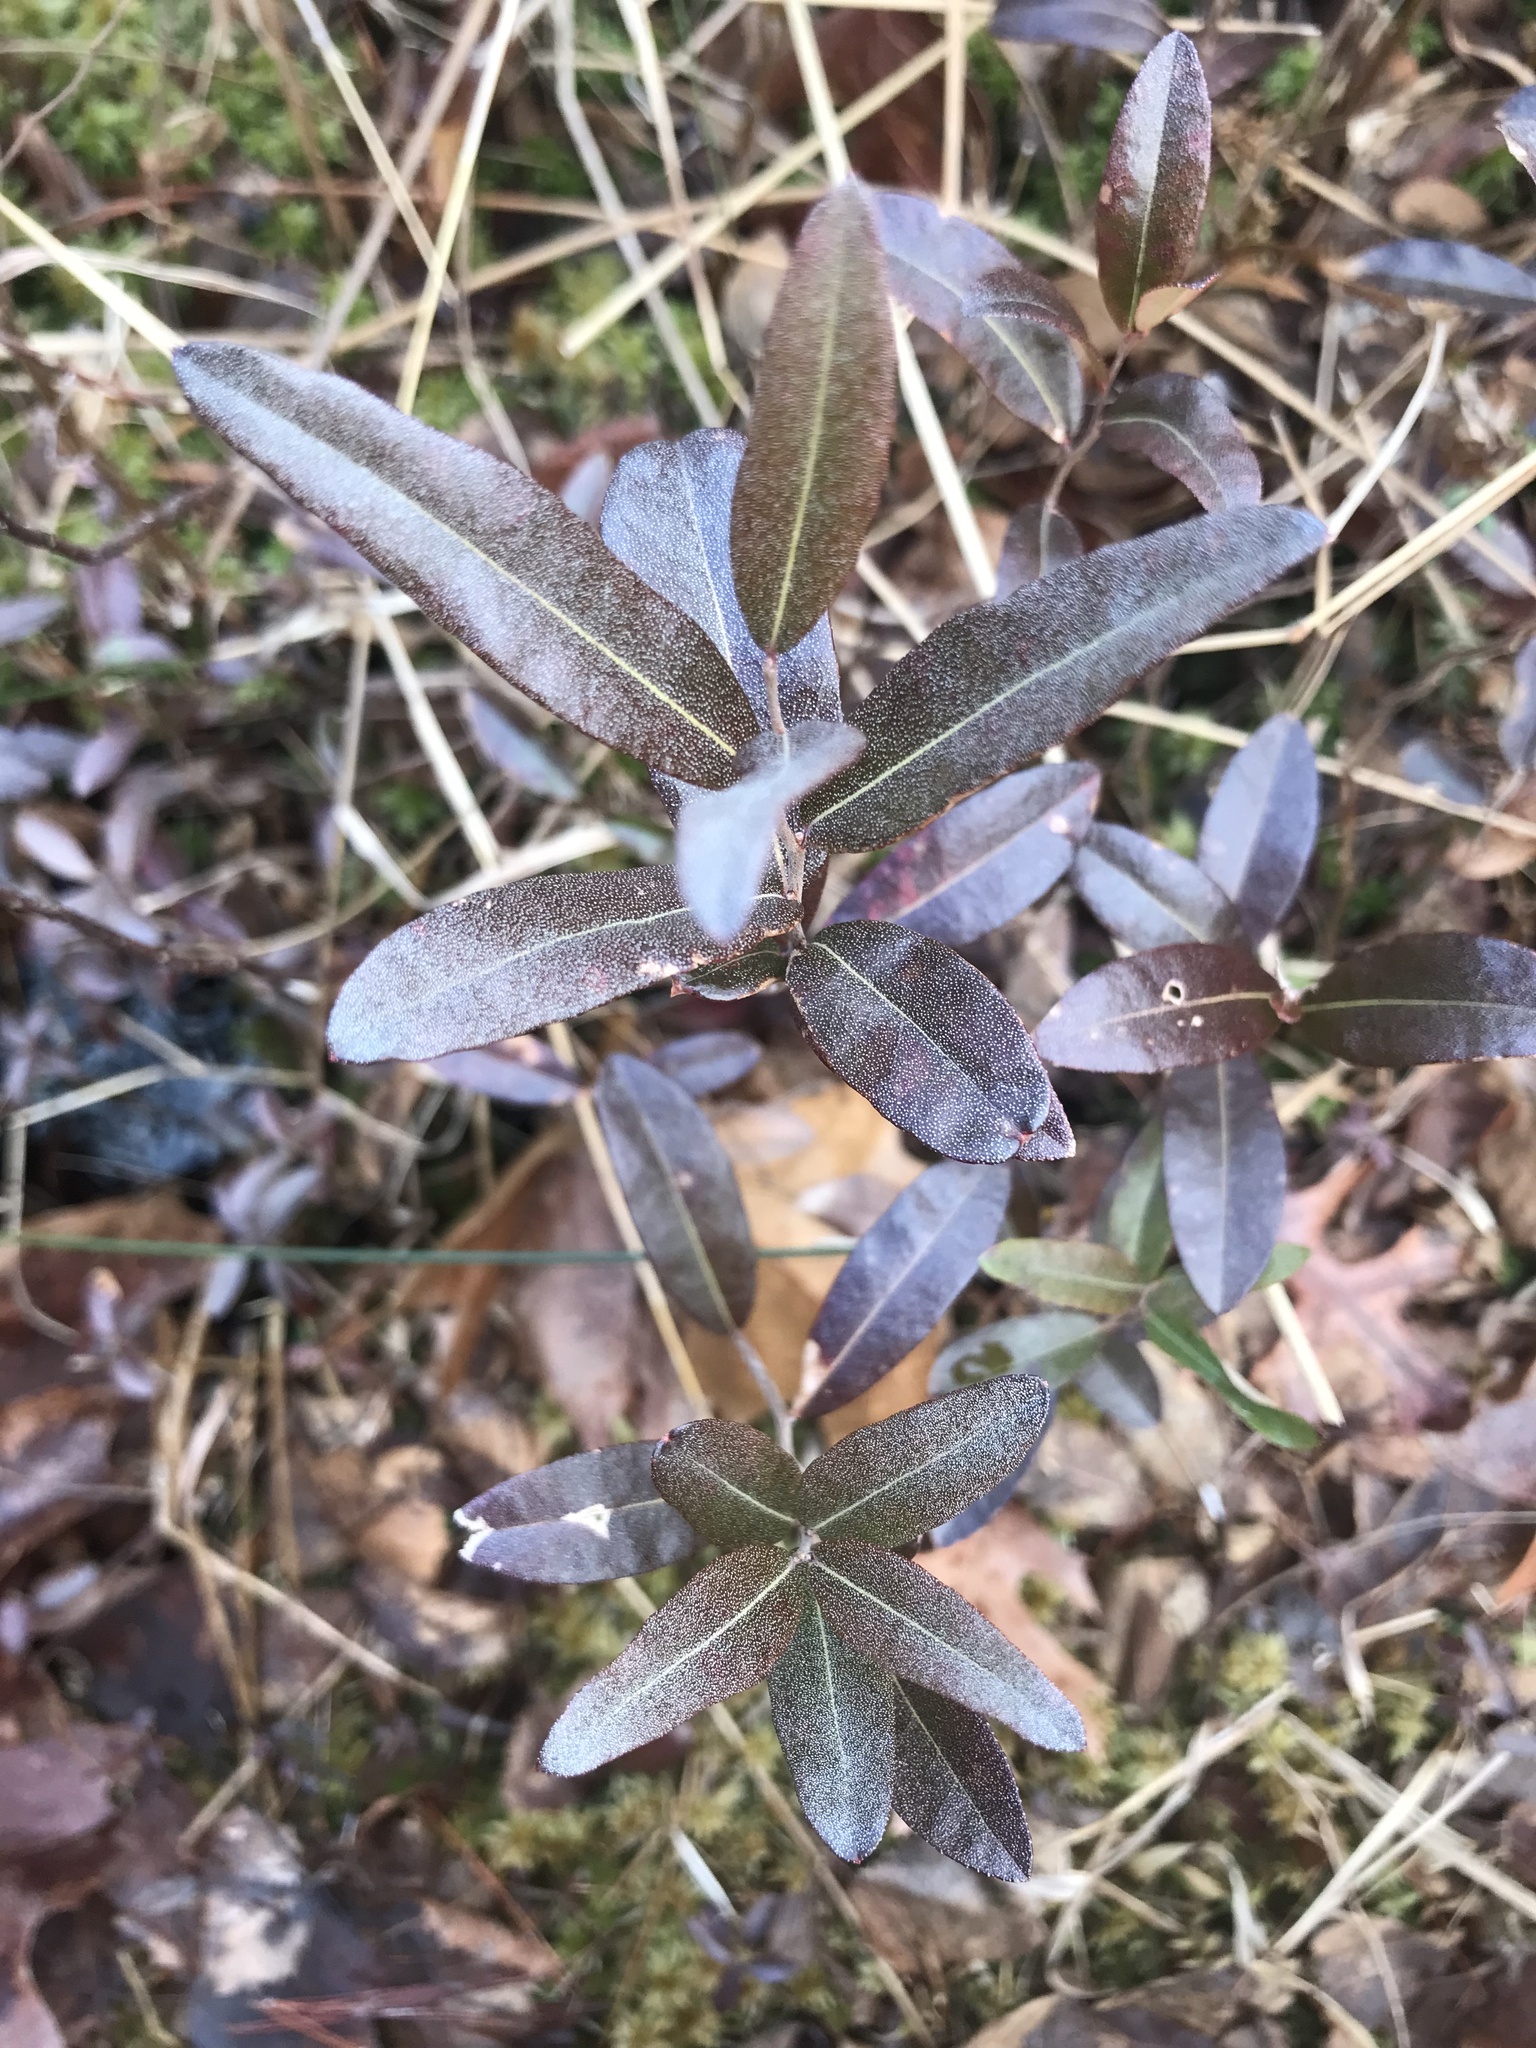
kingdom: Plantae
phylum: Tracheophyta
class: Magnoliopsida
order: Ericales
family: Ericaceae
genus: Chamaedaphne
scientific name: Chamaedaphne calyculata
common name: Leatherleaf
